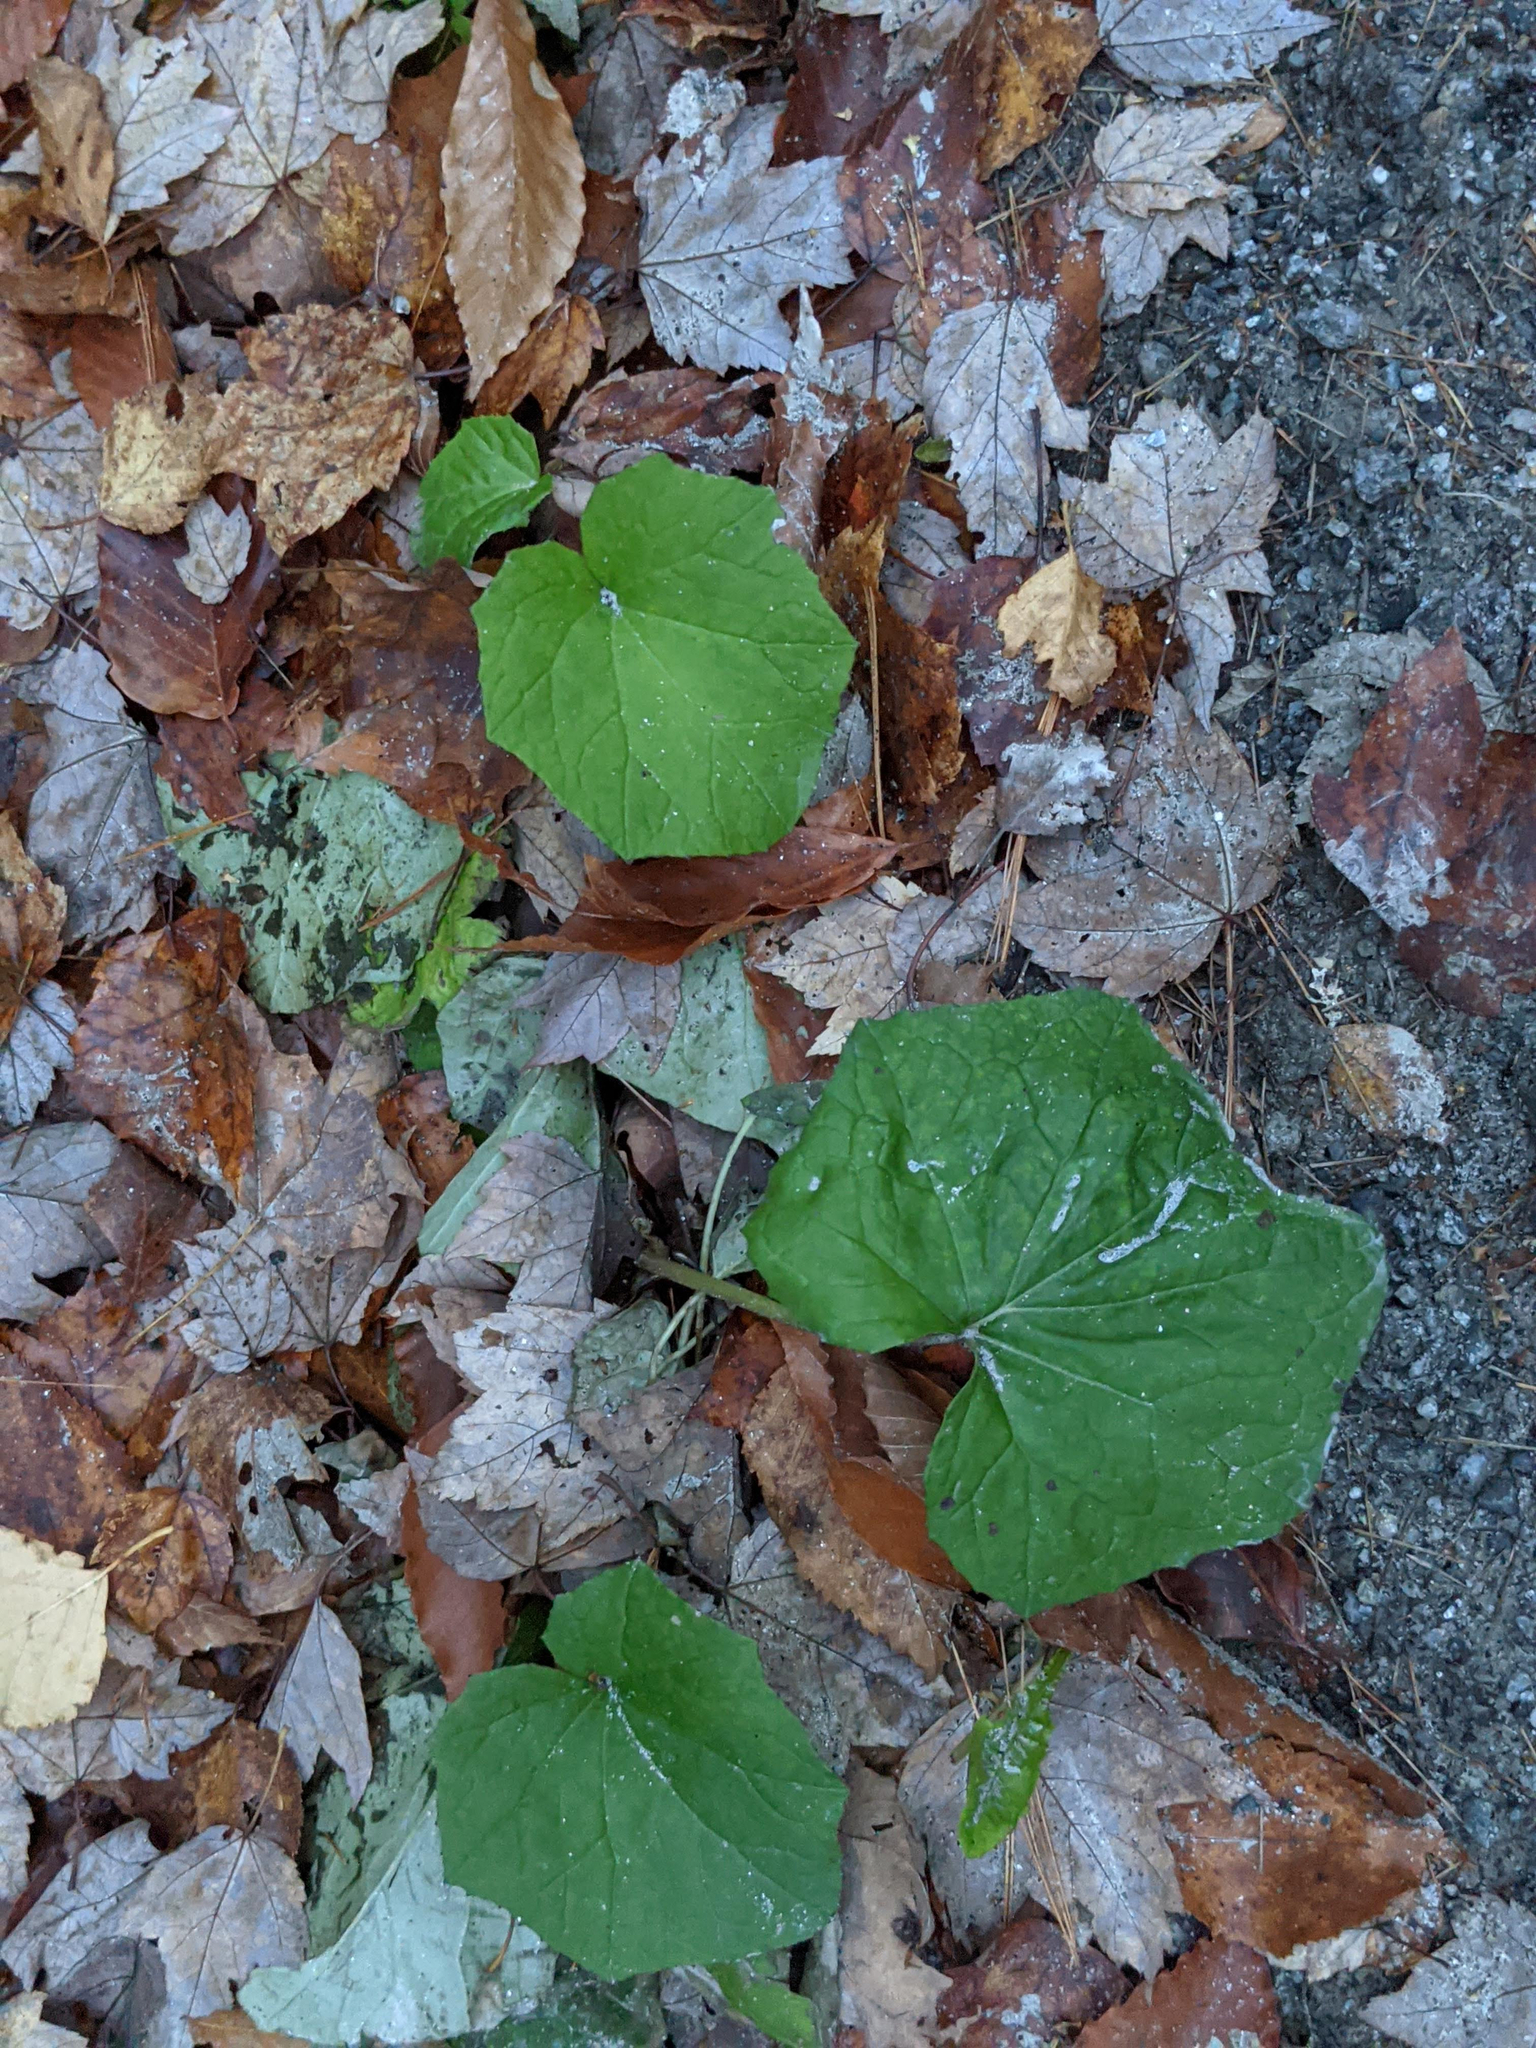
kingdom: Plantae
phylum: Tracheophyta
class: Magnoliopsida
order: Asterales
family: Asteraceae
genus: Tussilago
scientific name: Tussilago farfara
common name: Coltsfoot
